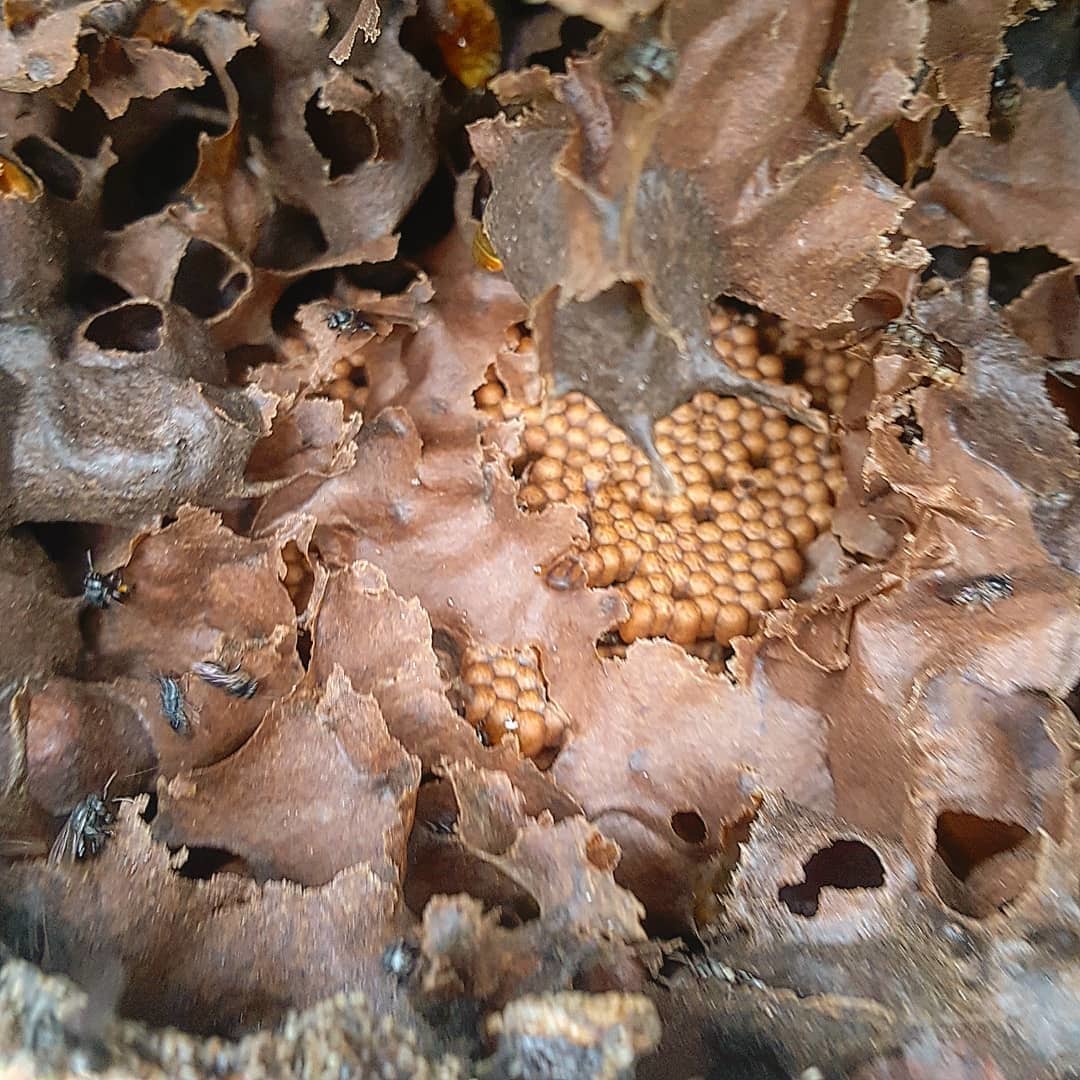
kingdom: Animalia
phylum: Arthropoda
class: Insecta
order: Hymenoptera
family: Apidae
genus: Scaptotrigona
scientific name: Scaptotrigona mexicana
